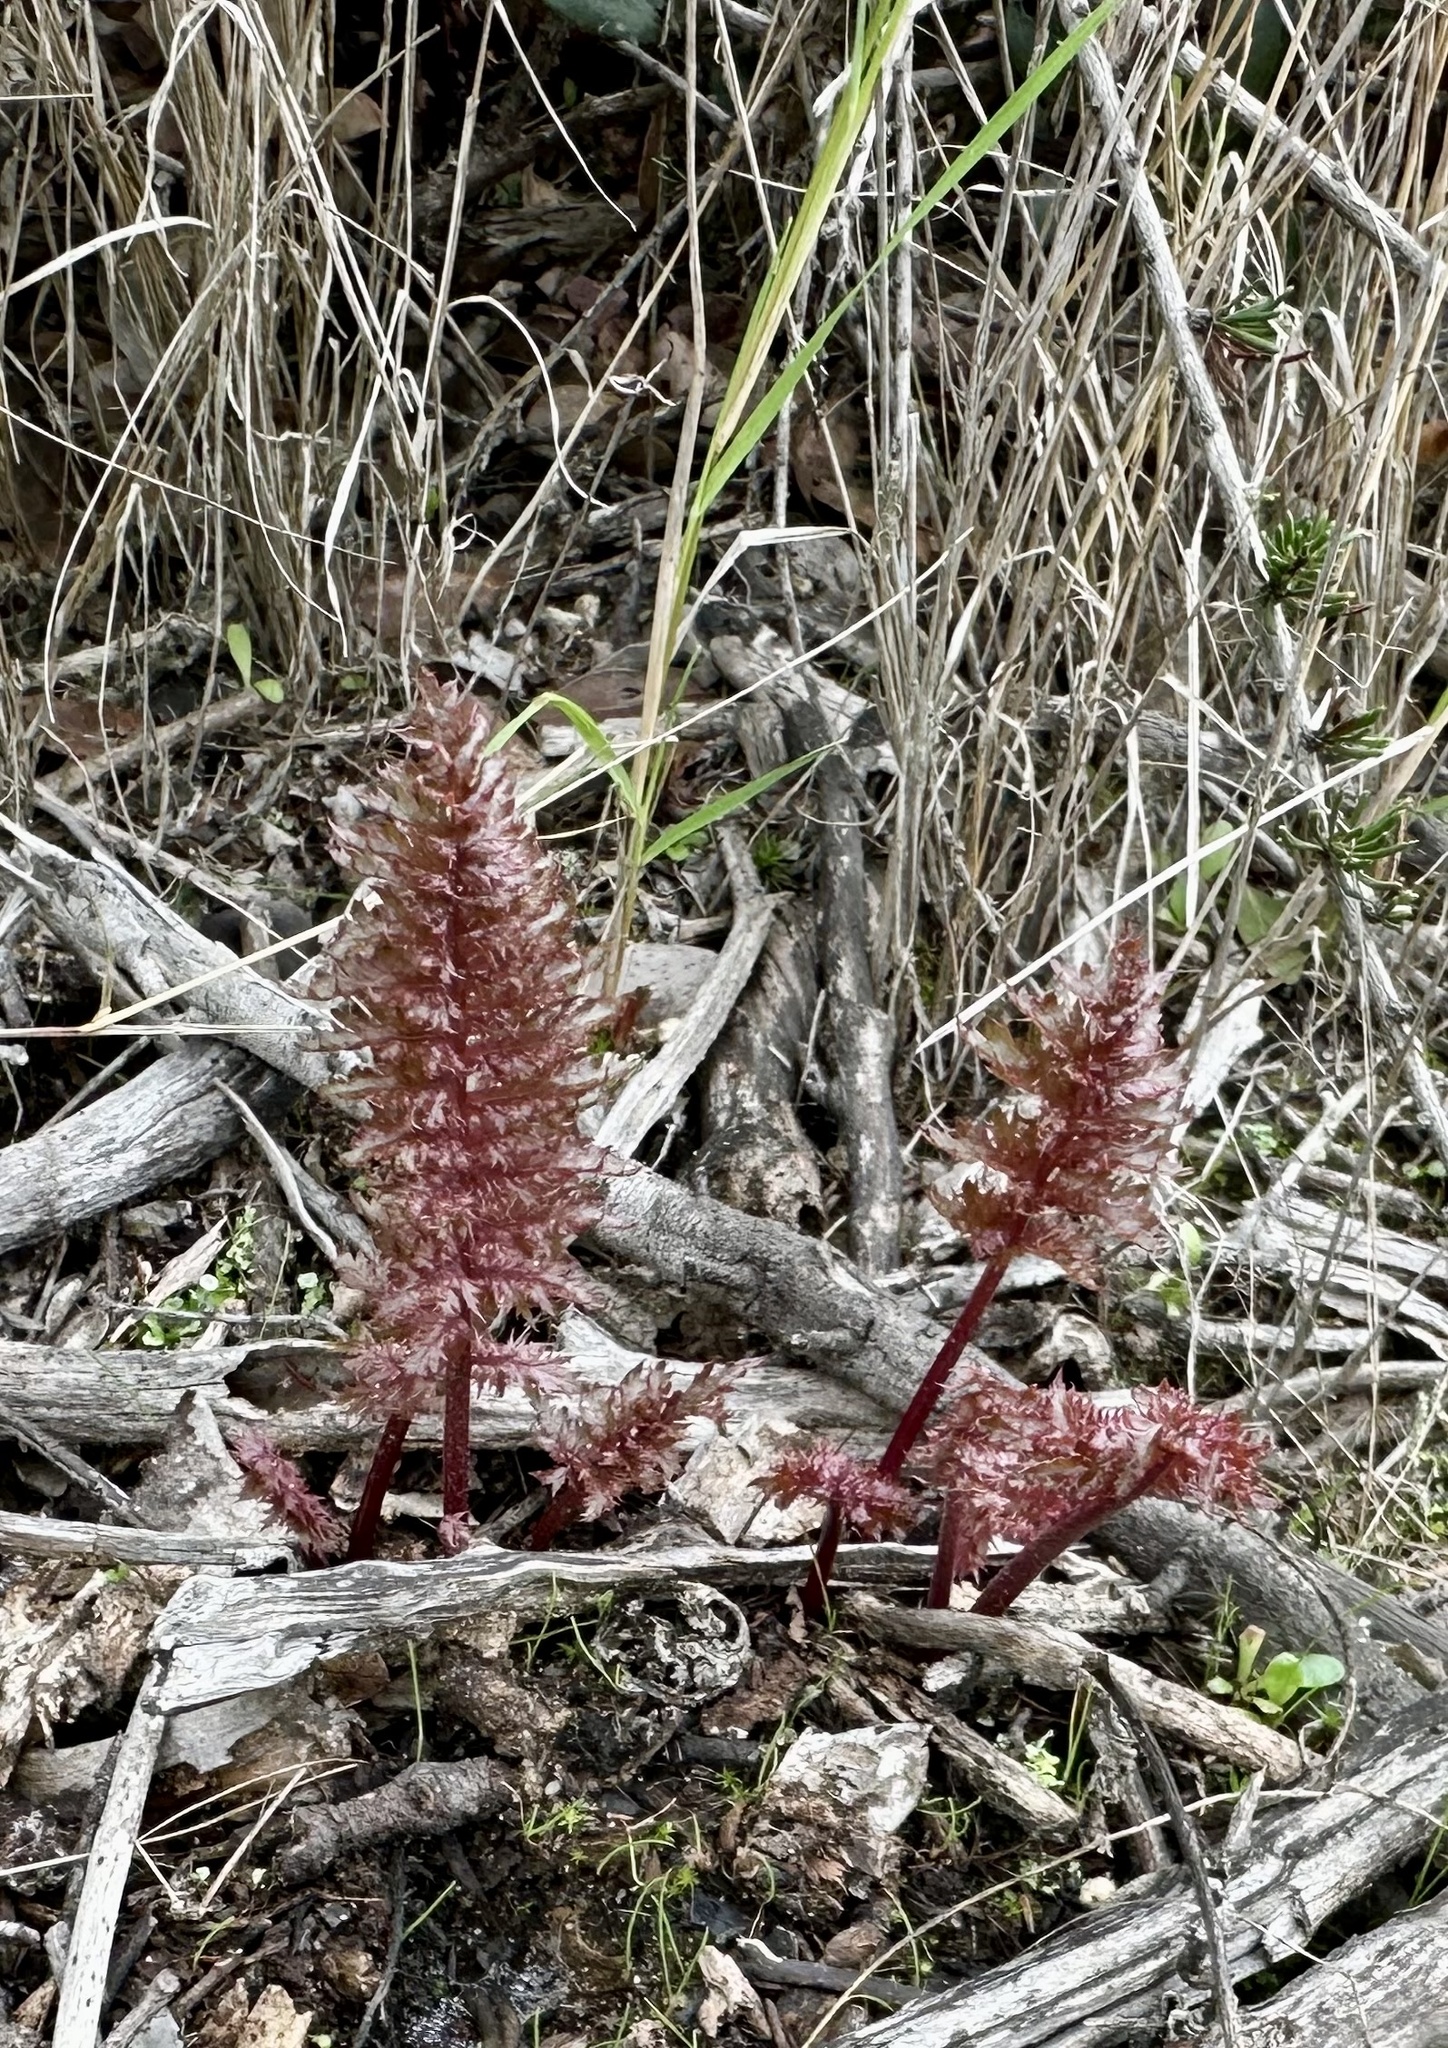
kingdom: Plantae
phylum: Tracheophyta
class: Magnoliopsida
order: Lamiales
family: Orobanchaceae
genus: Pedicularis
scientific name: Pedicularis densiflora
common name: Indian warrior
